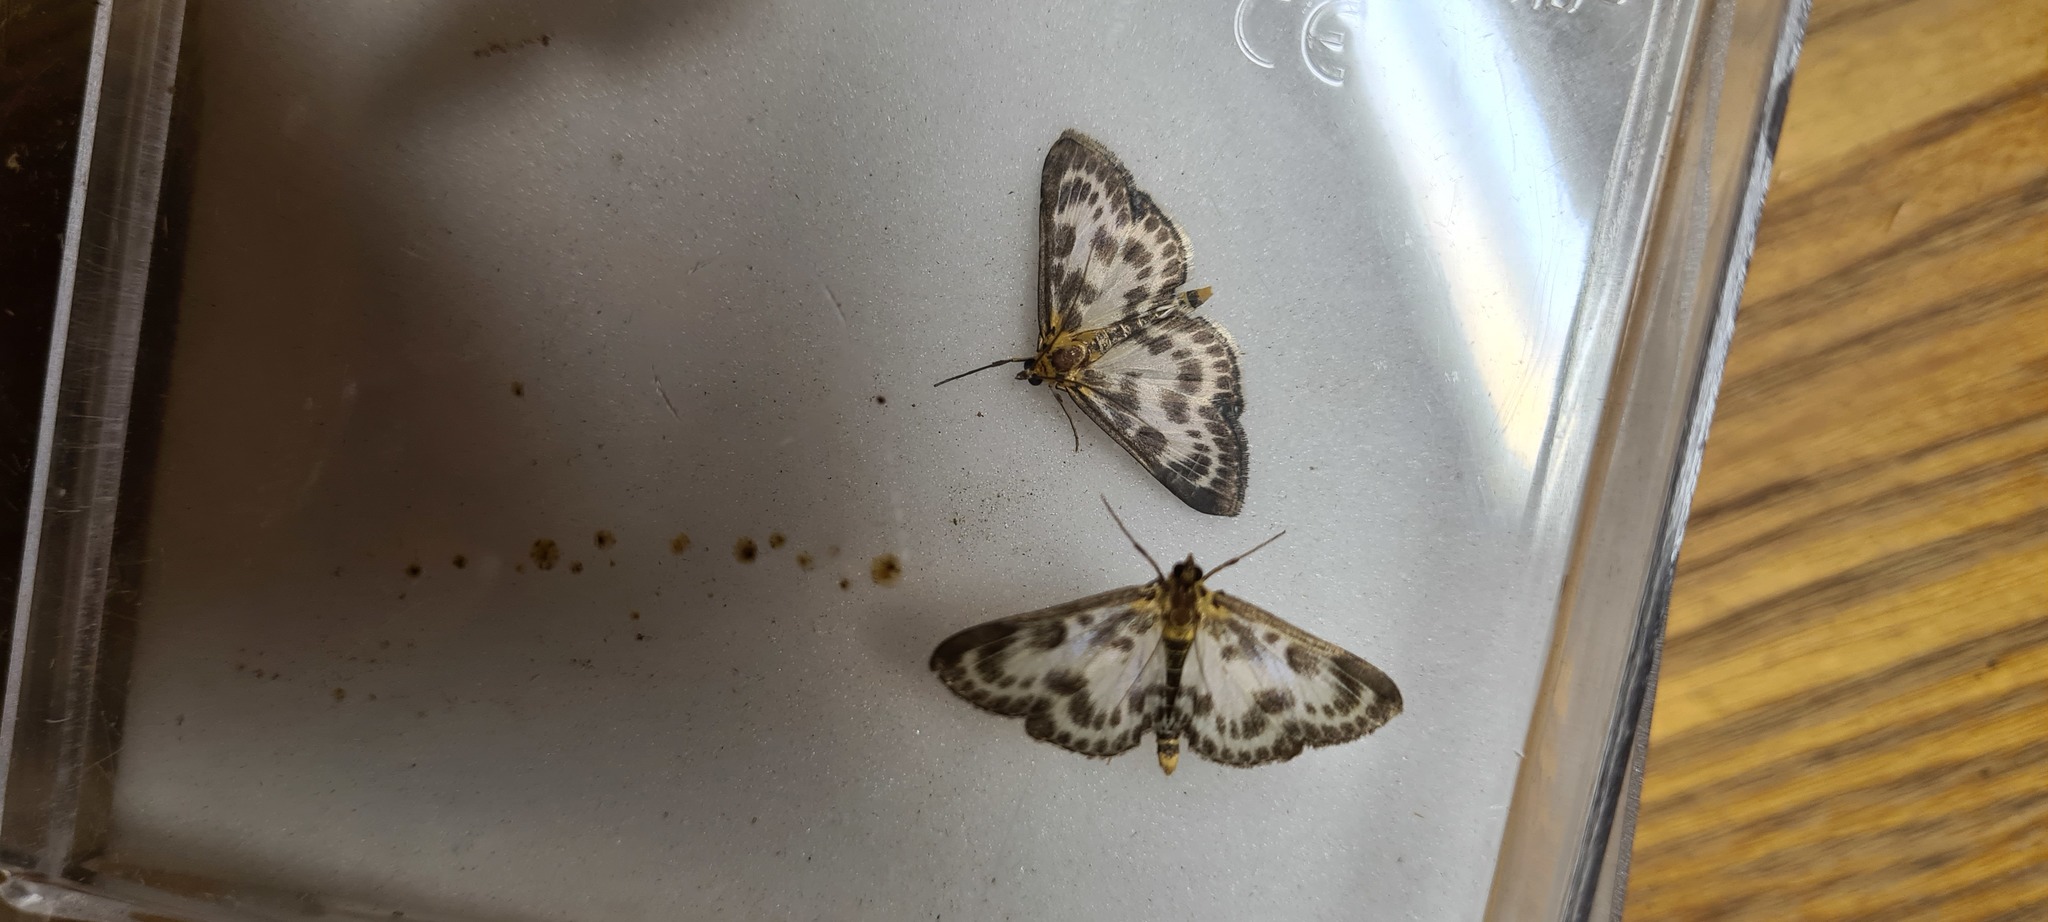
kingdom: Animalia
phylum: Arthropoda
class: Insecta
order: Lepidoptera
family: Crambidae
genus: Anania
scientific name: Anania hortulata
